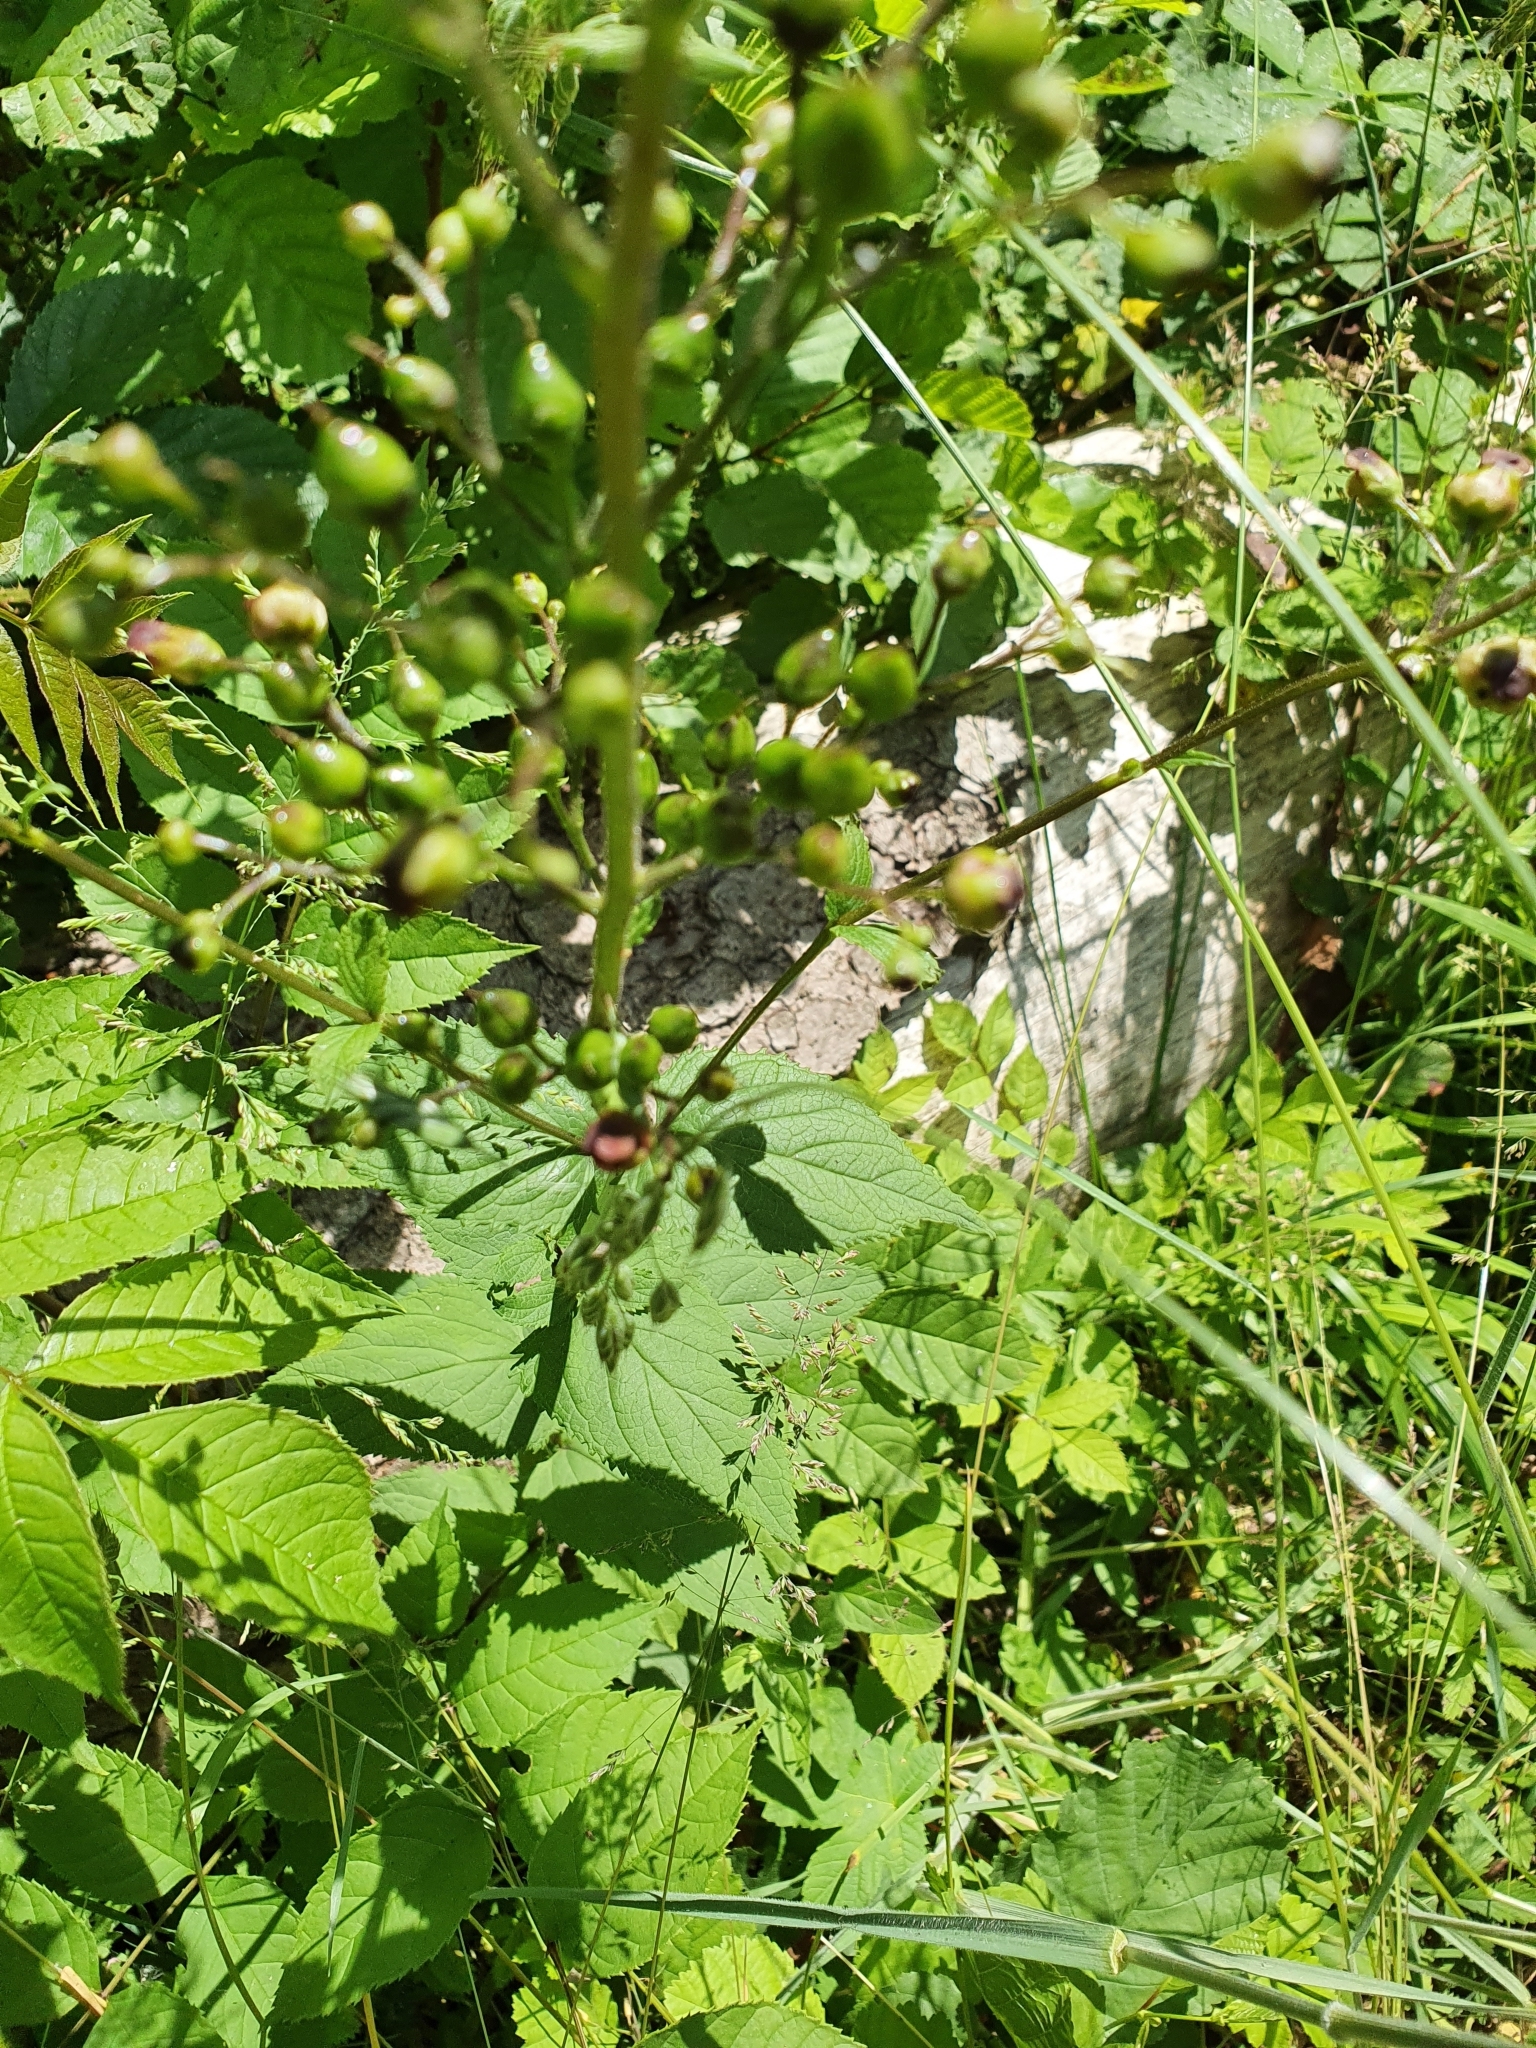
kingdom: Plantae
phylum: Tracheophyta
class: Magnoliopsida
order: Lamiales
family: Scrophulariaceae
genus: Scrophularia
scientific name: Scrophularia nodosa
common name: Common figwort
